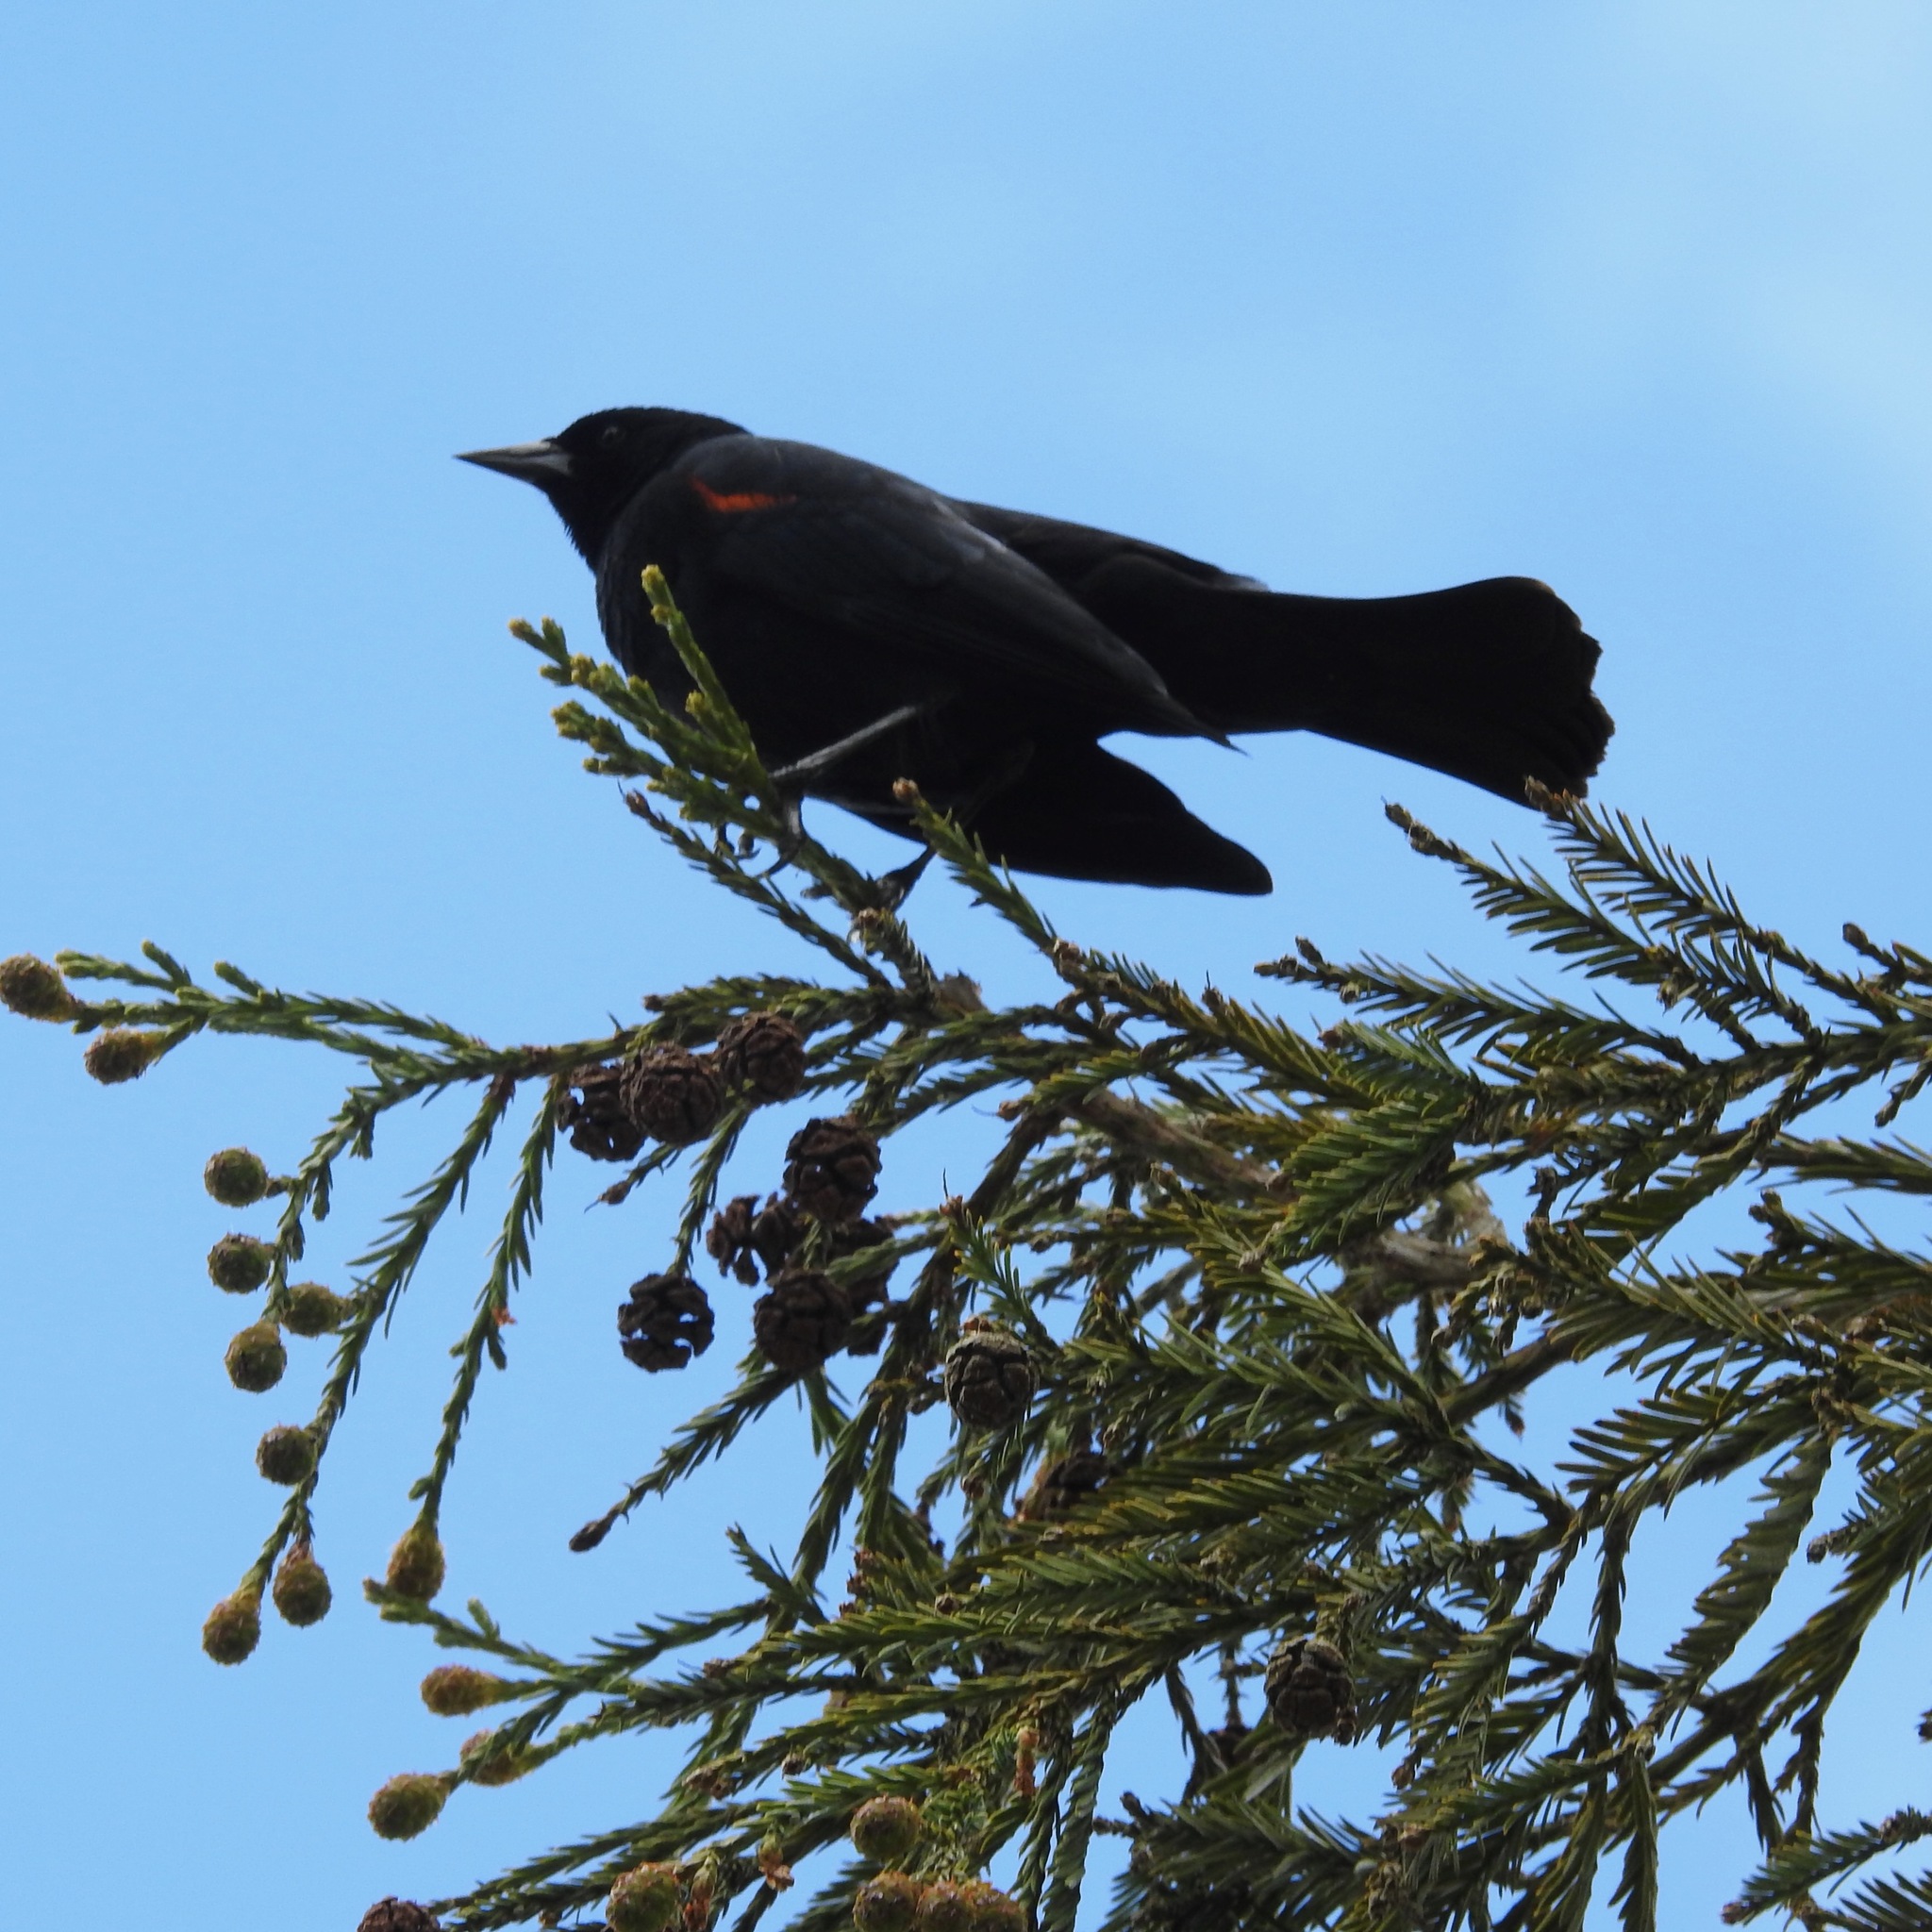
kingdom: Animalia
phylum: Chordata
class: Aves
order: Passeriformes
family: Icteridae
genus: Agelaius
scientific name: Agelaius phoeniceus
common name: Red-winged blackbird
